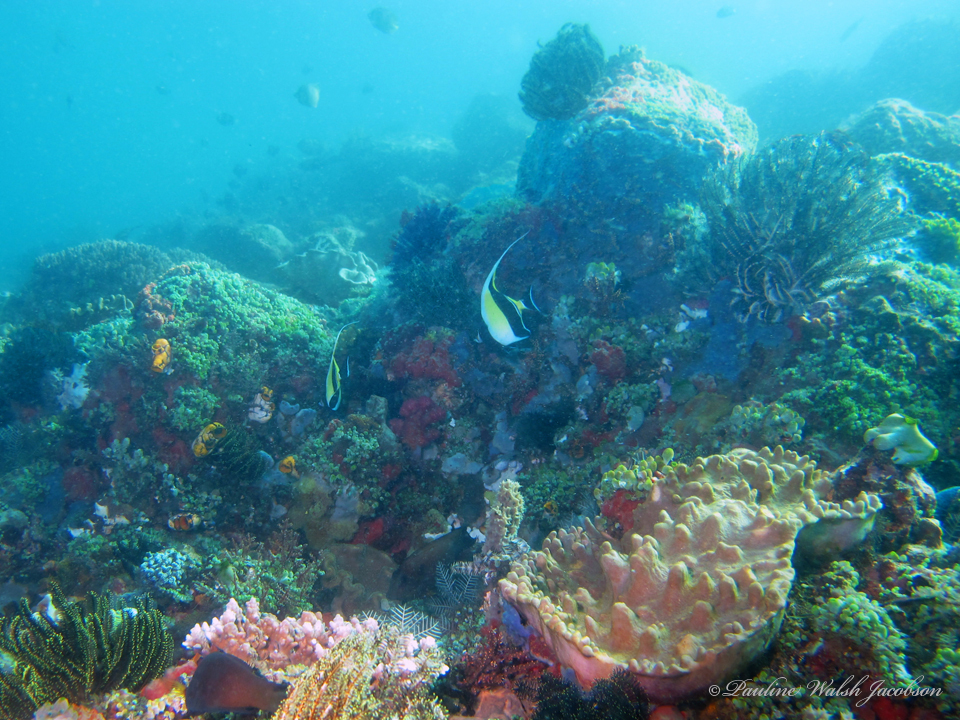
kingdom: Animalia
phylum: Chordata
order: Perciformes
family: Zanclidae
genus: Zanclus
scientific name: Zanclus cornutus
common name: Moorish idol
